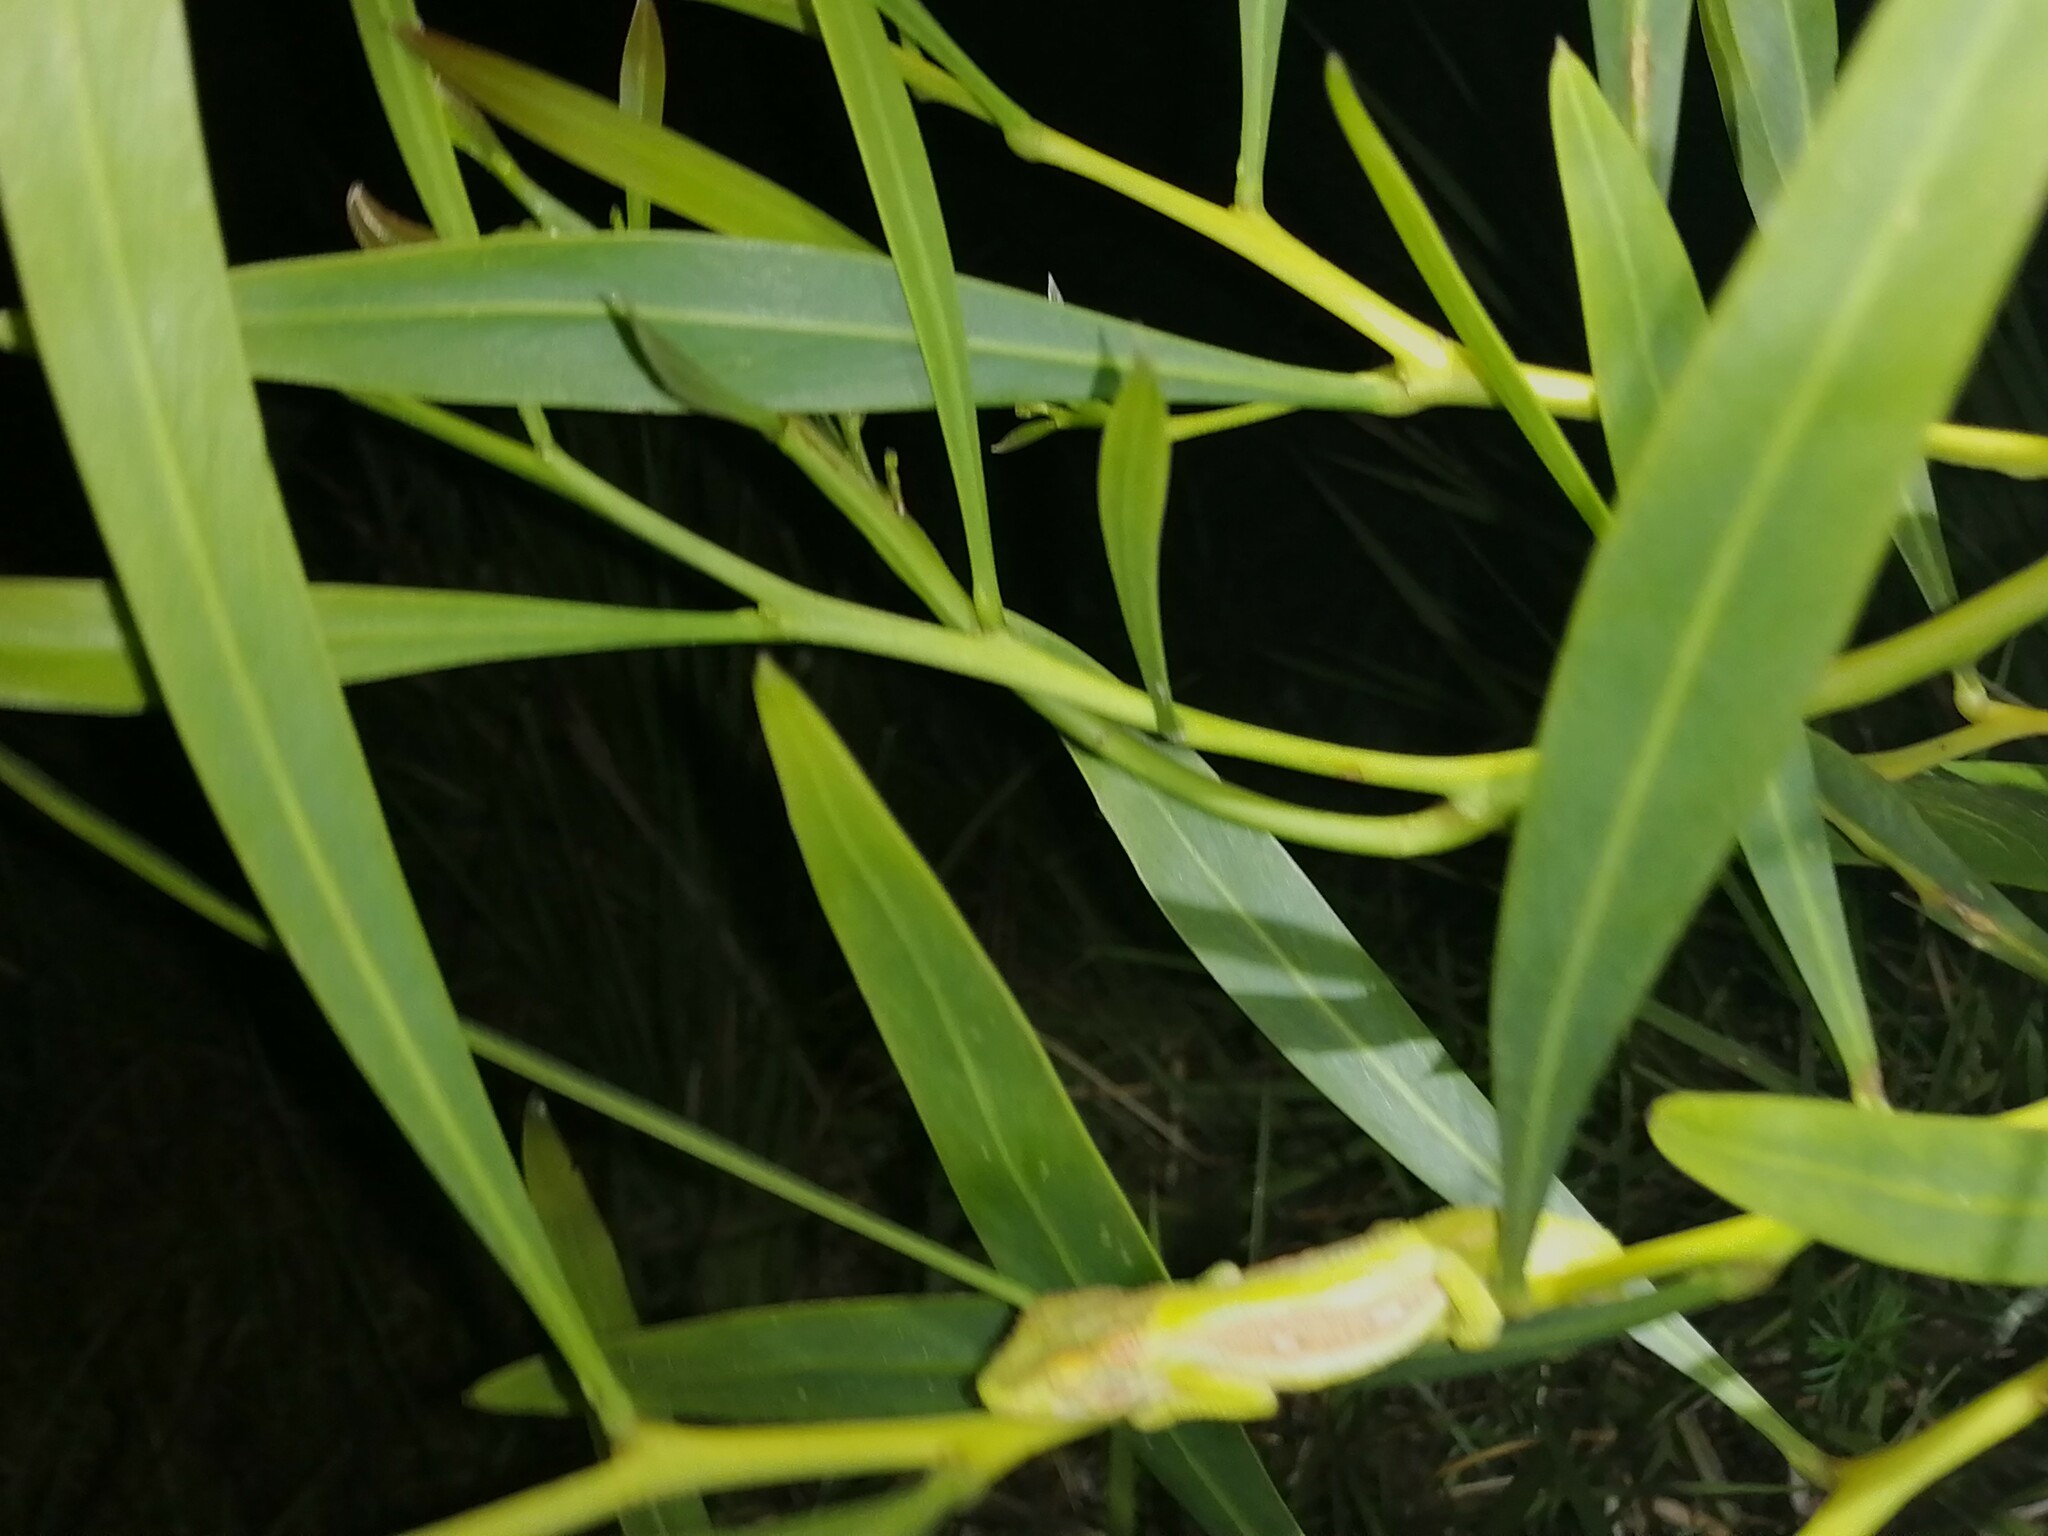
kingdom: Animalia
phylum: Chordata
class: Squamata
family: Chamaeleonidae
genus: Bradypodion
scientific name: Bradypodion pumilum
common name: Cape dwarf chameleon
